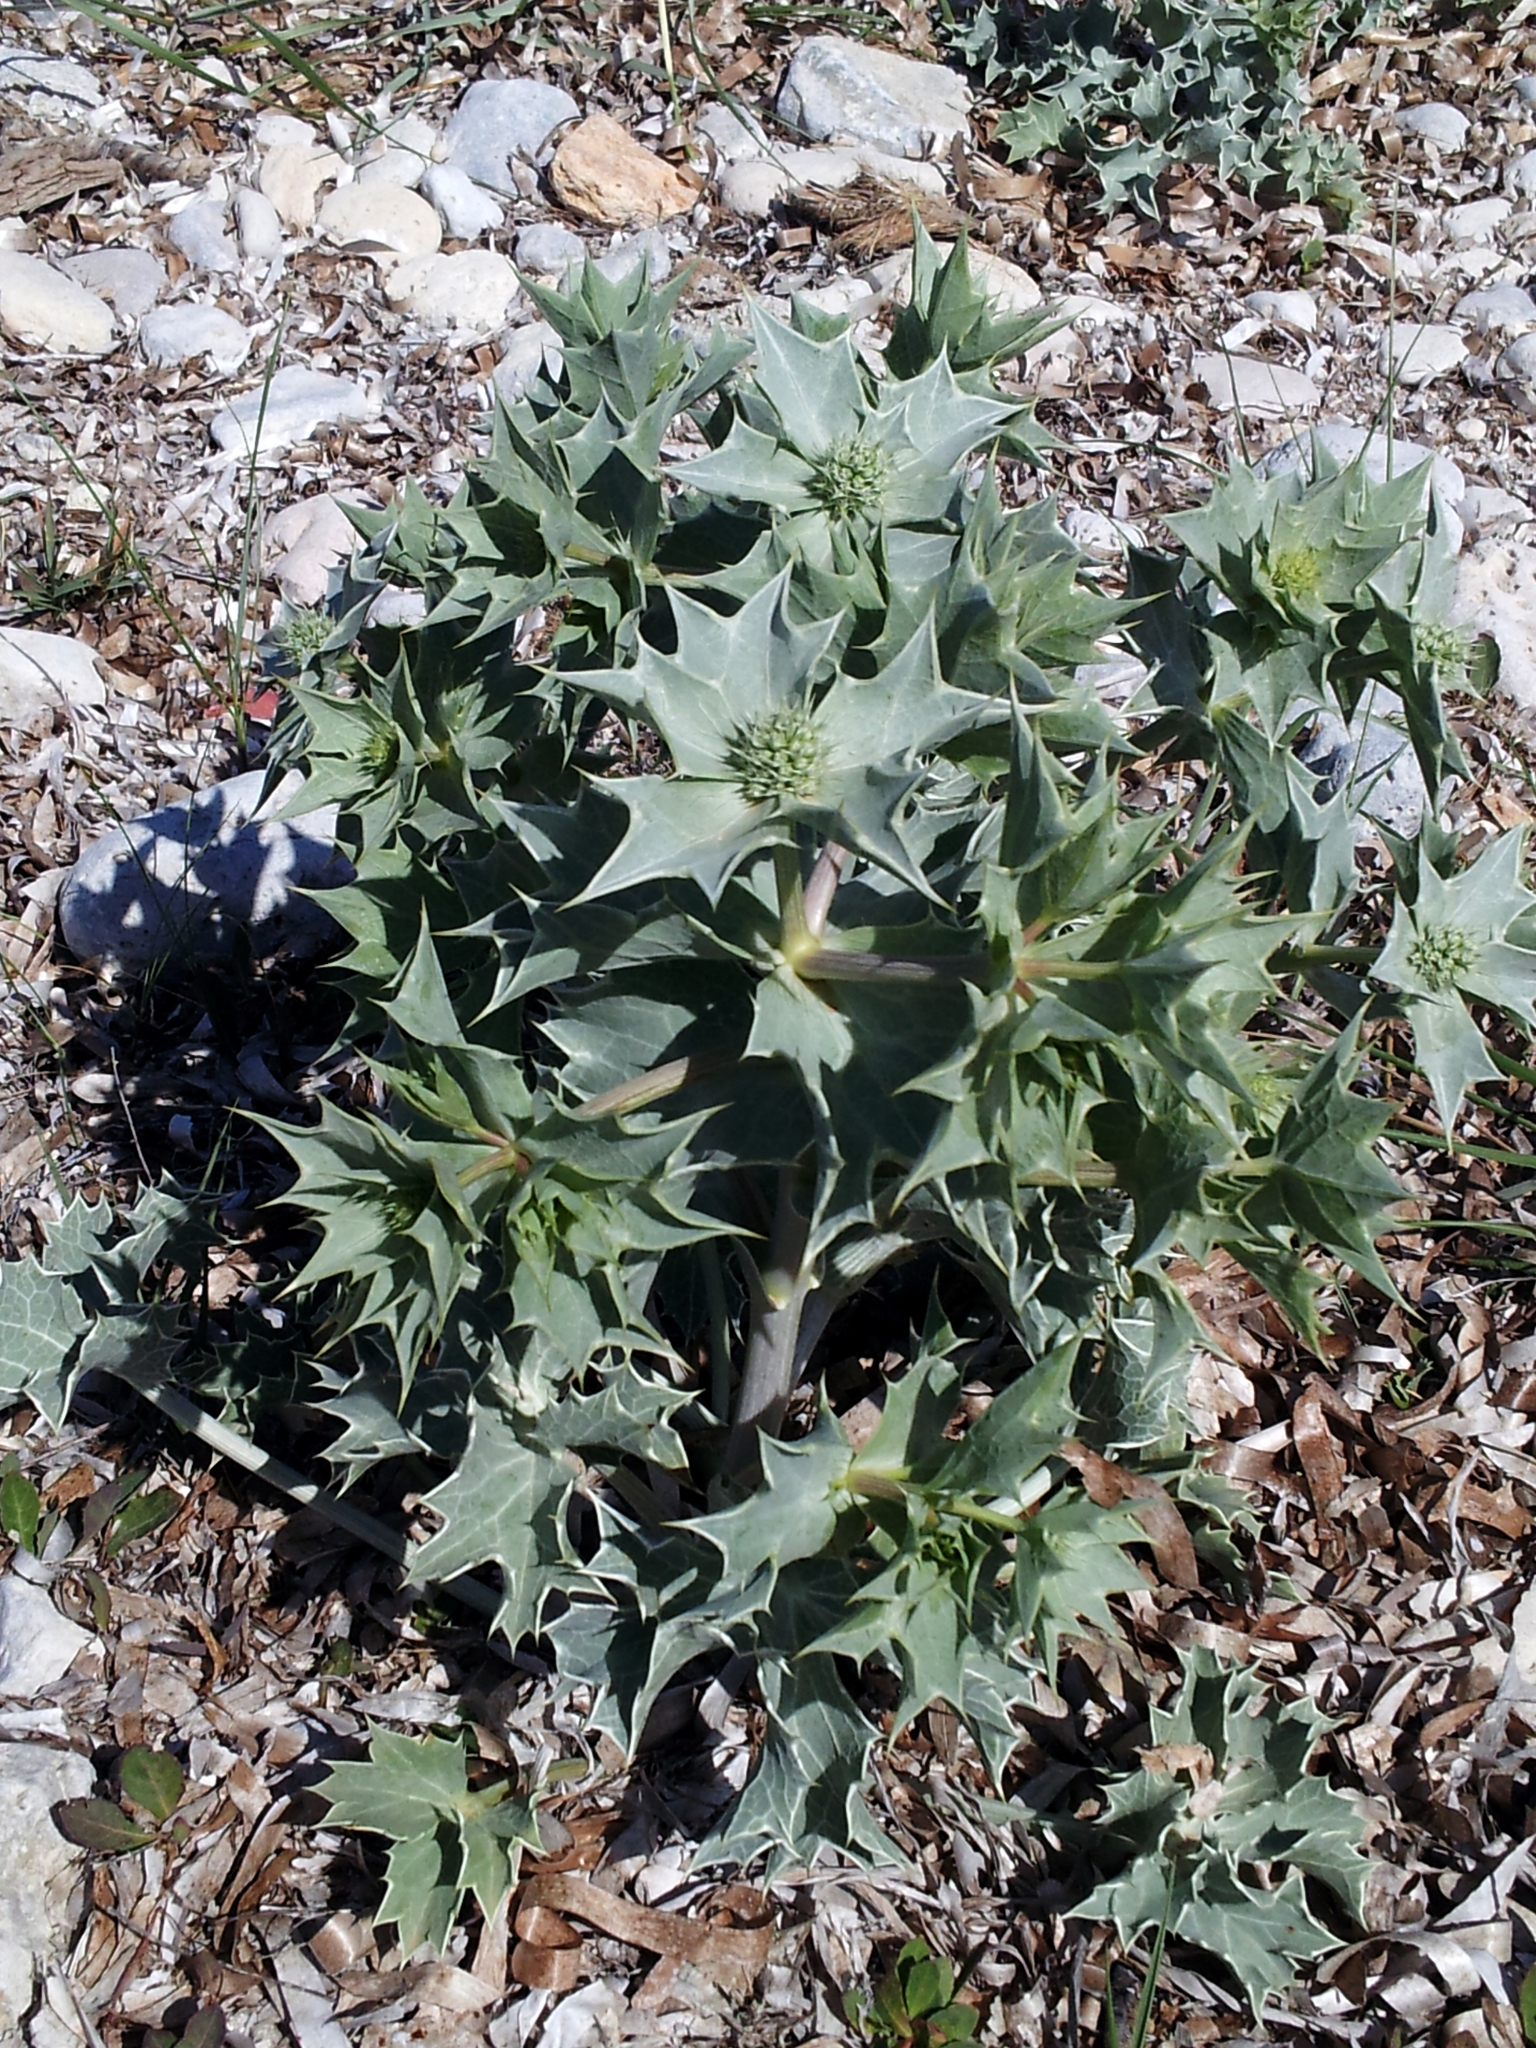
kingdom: Plantae
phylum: Tracheophyta
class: Magnoliopsida
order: Apiales
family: Apiaceae
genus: Eryngium
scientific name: Eryngium maritimum
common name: Sea-holly
